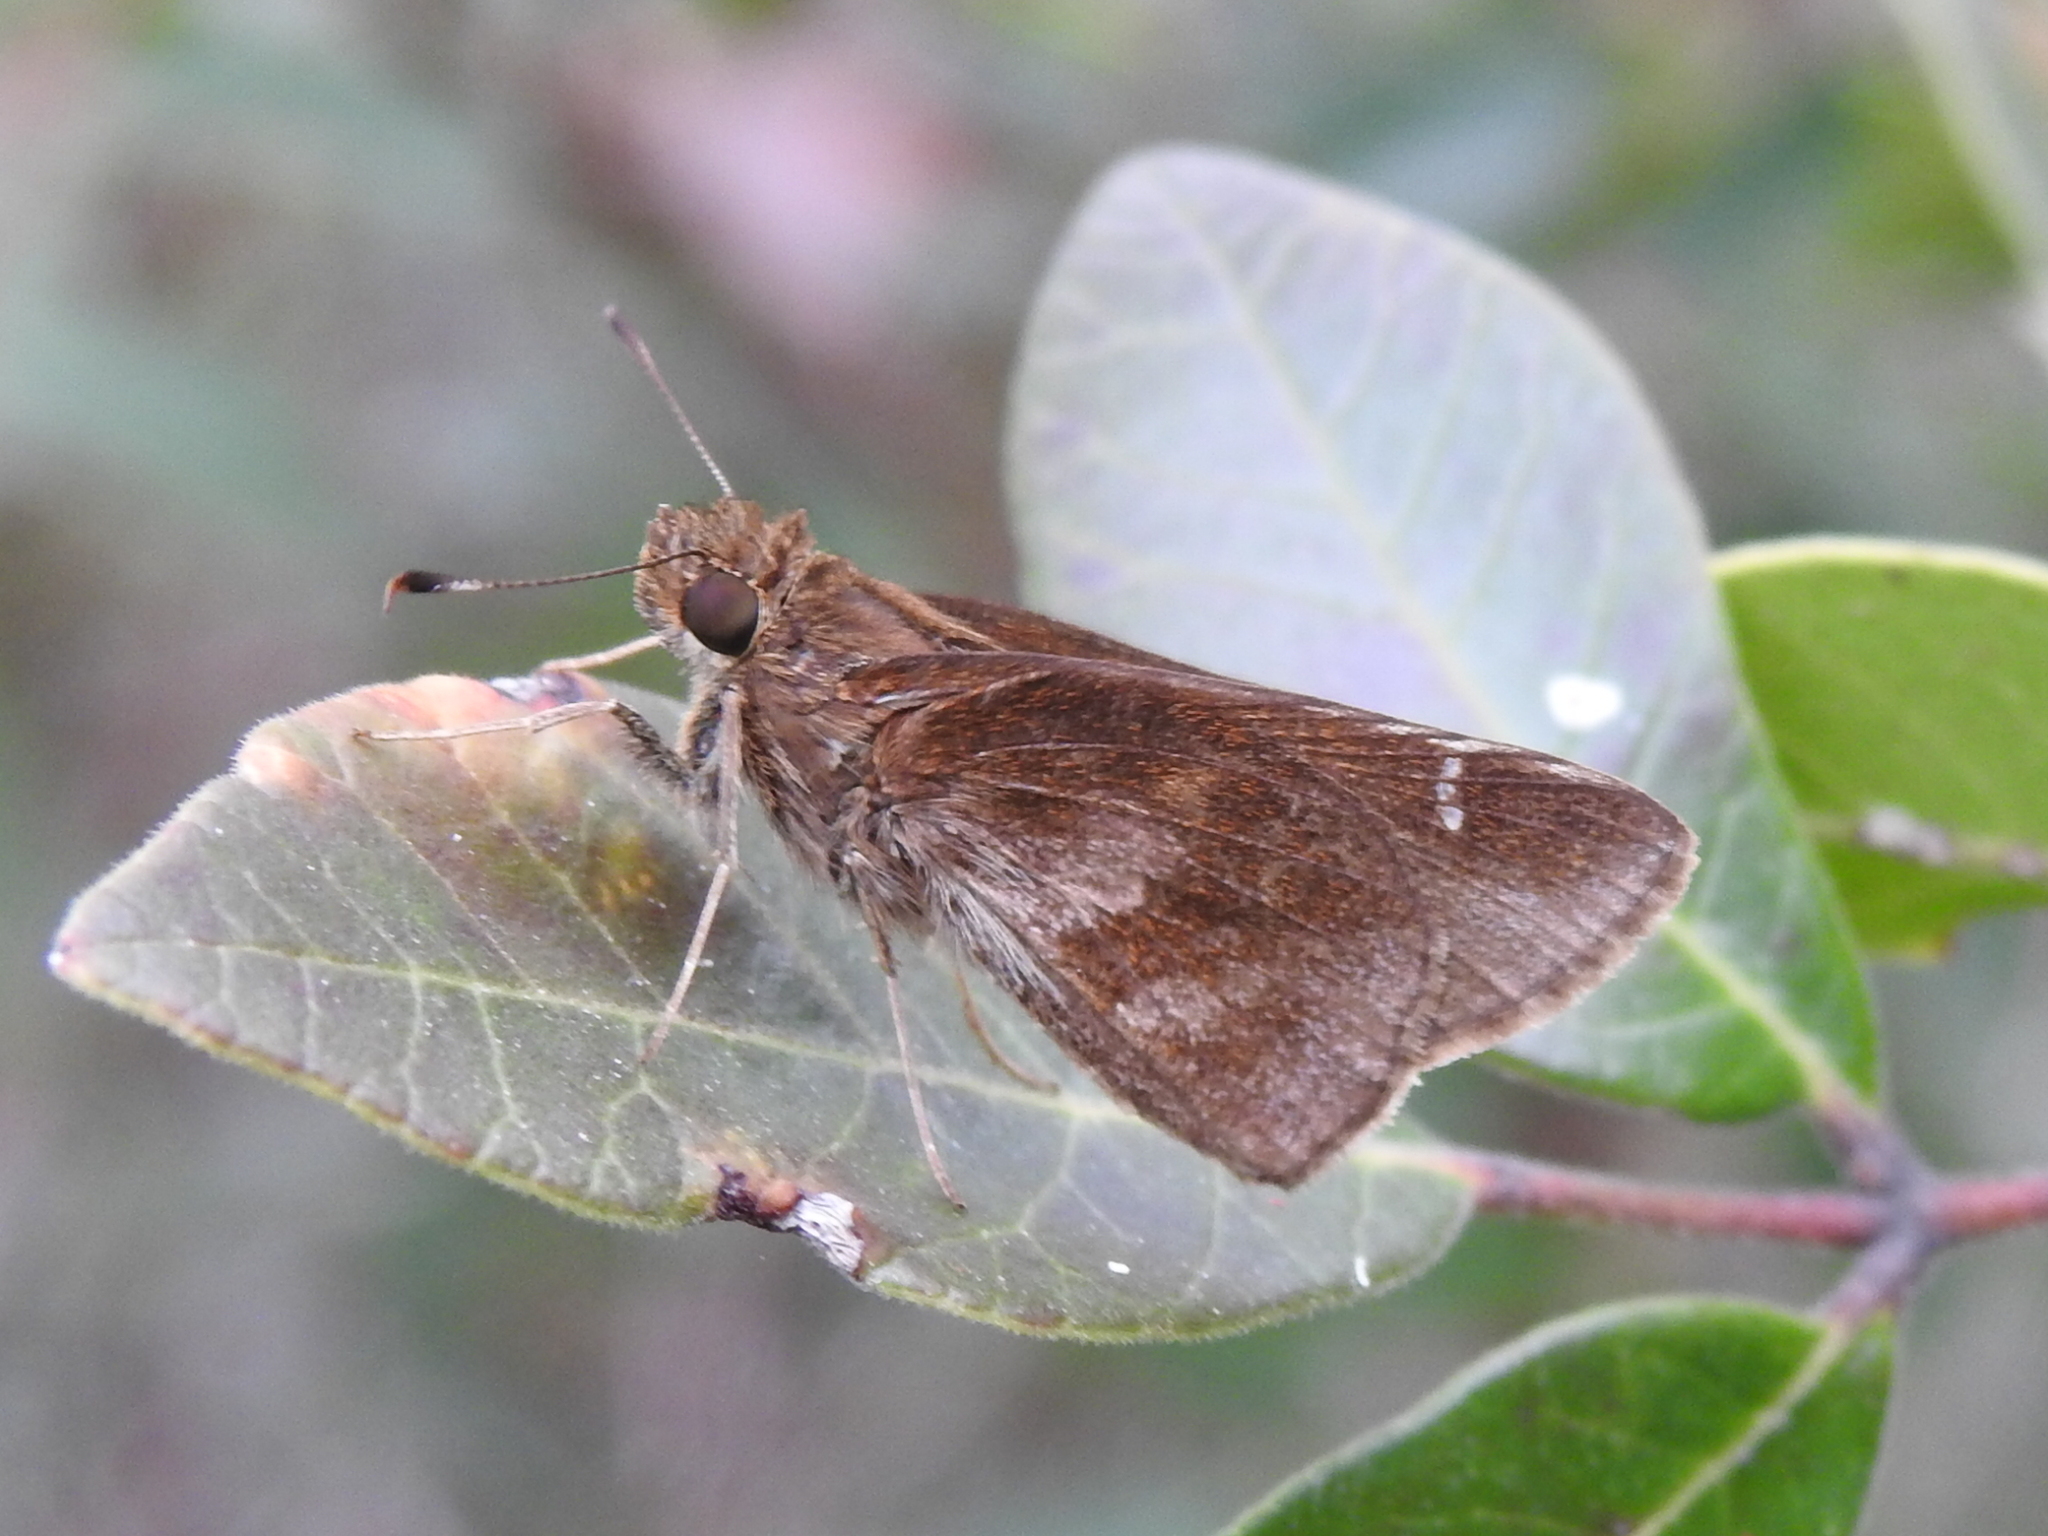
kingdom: Animalia
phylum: Arthropoda
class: Insecta
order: Lepidoptera
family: Hesperiidae
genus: Lerema
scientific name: Lerema accius
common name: Clouded skipper
